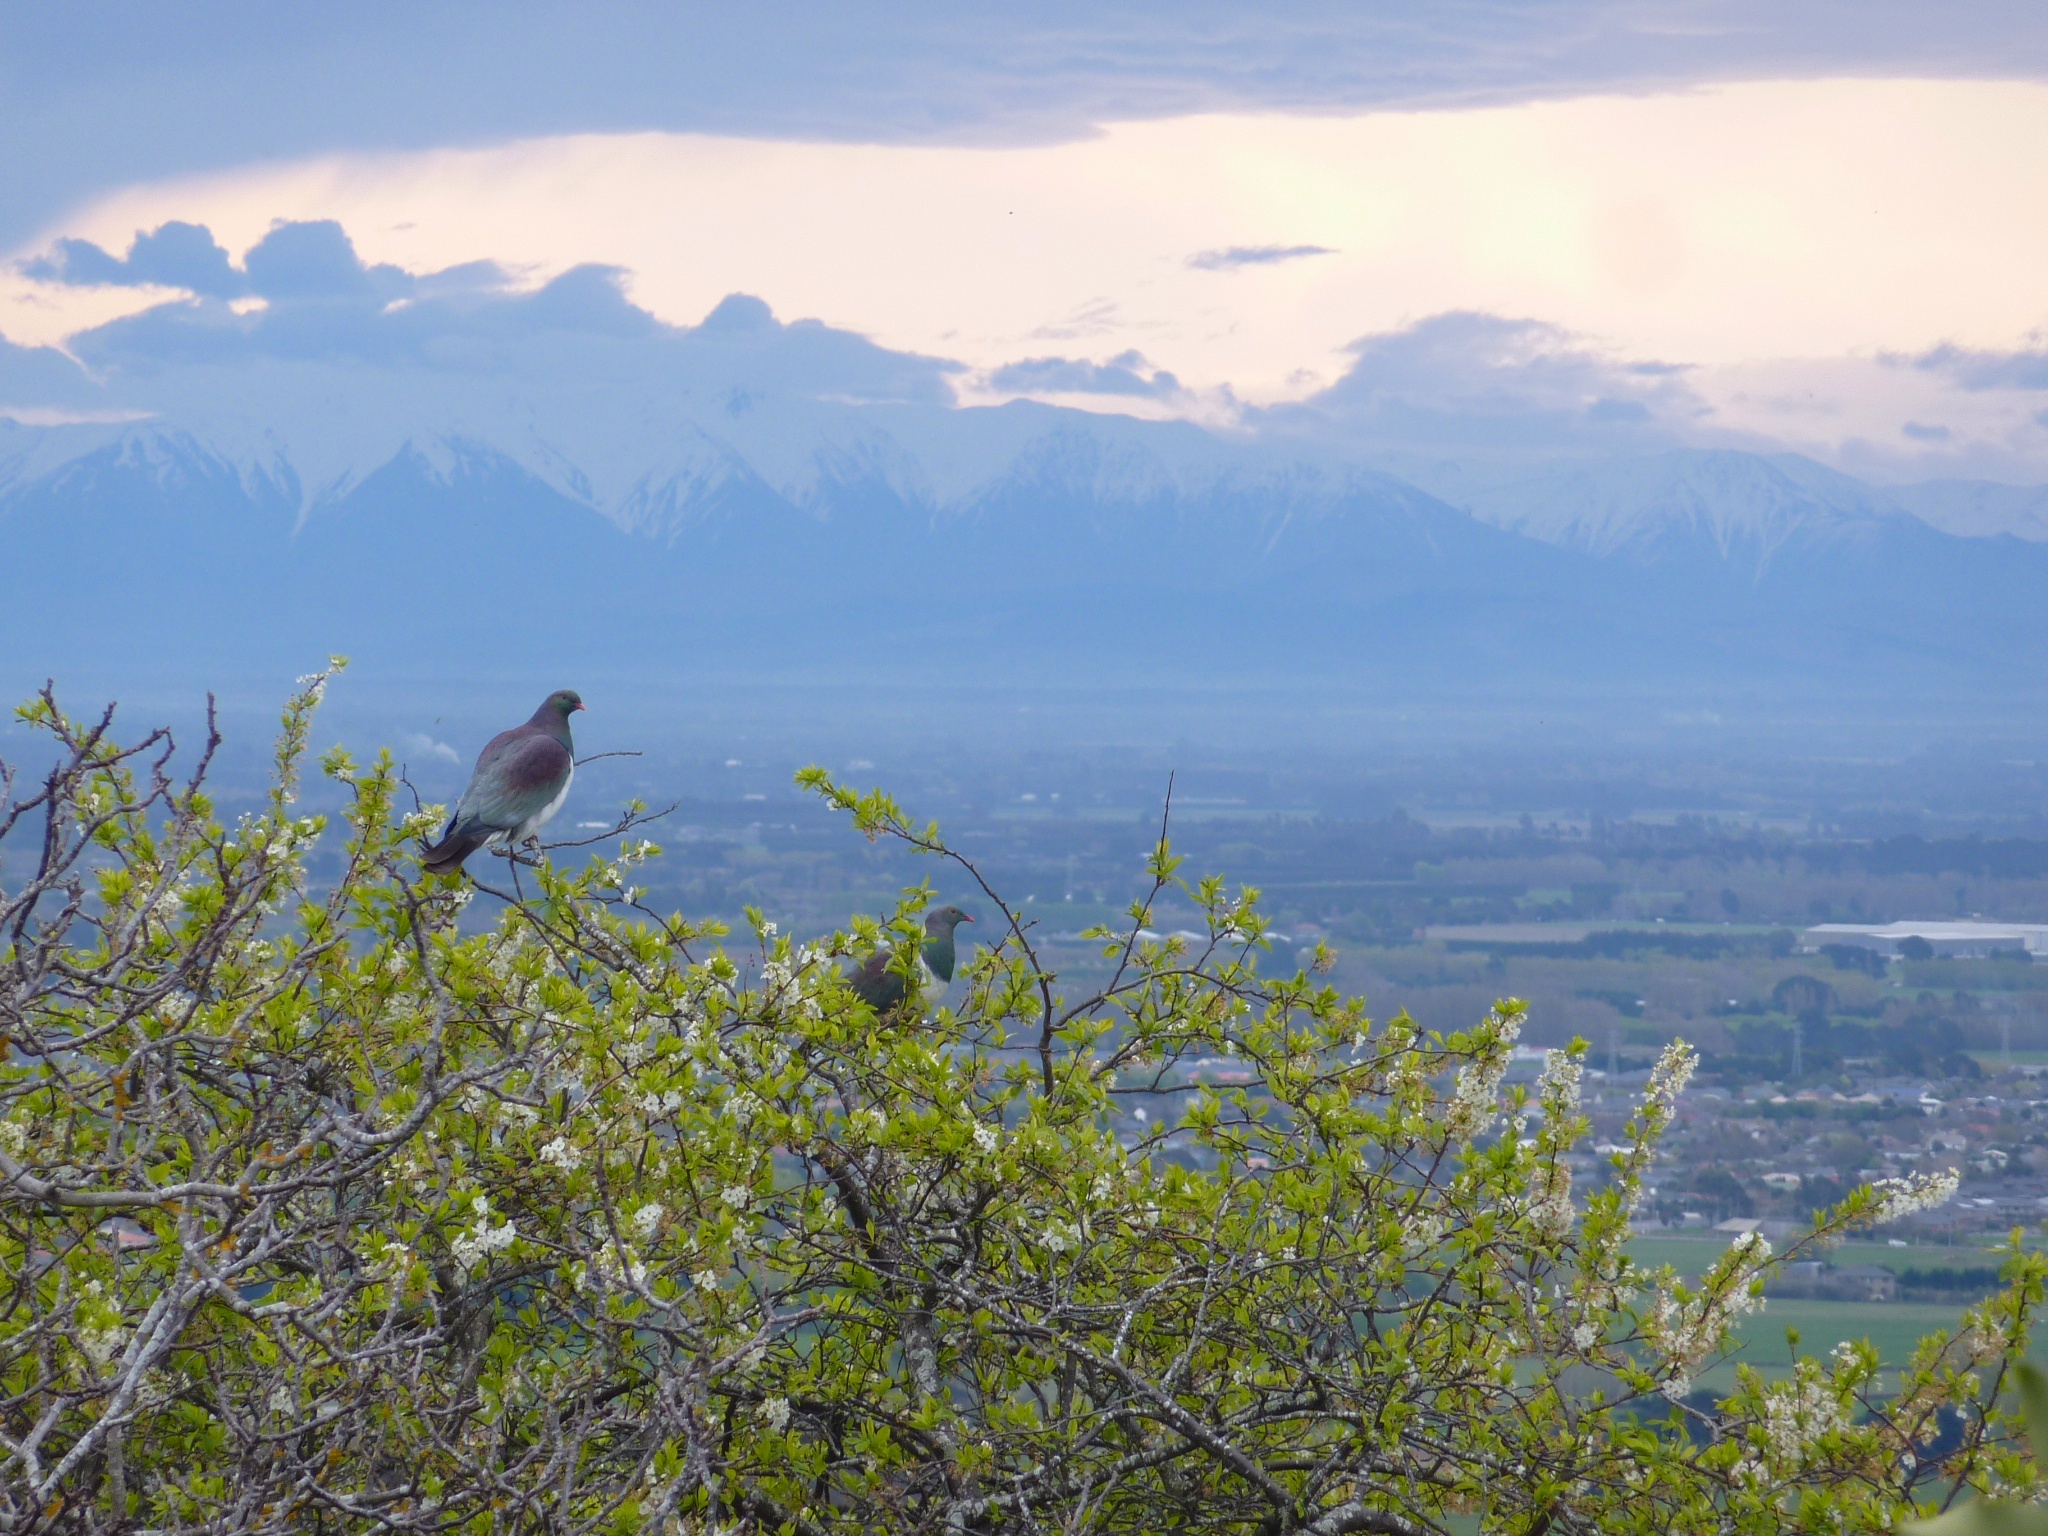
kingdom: Animalia
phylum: Chordata
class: Aves
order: Columbiformes
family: Columbidae
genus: Hemiphaga
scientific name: Hemiphaga novaeseelandiae
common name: New zealand pigeon
